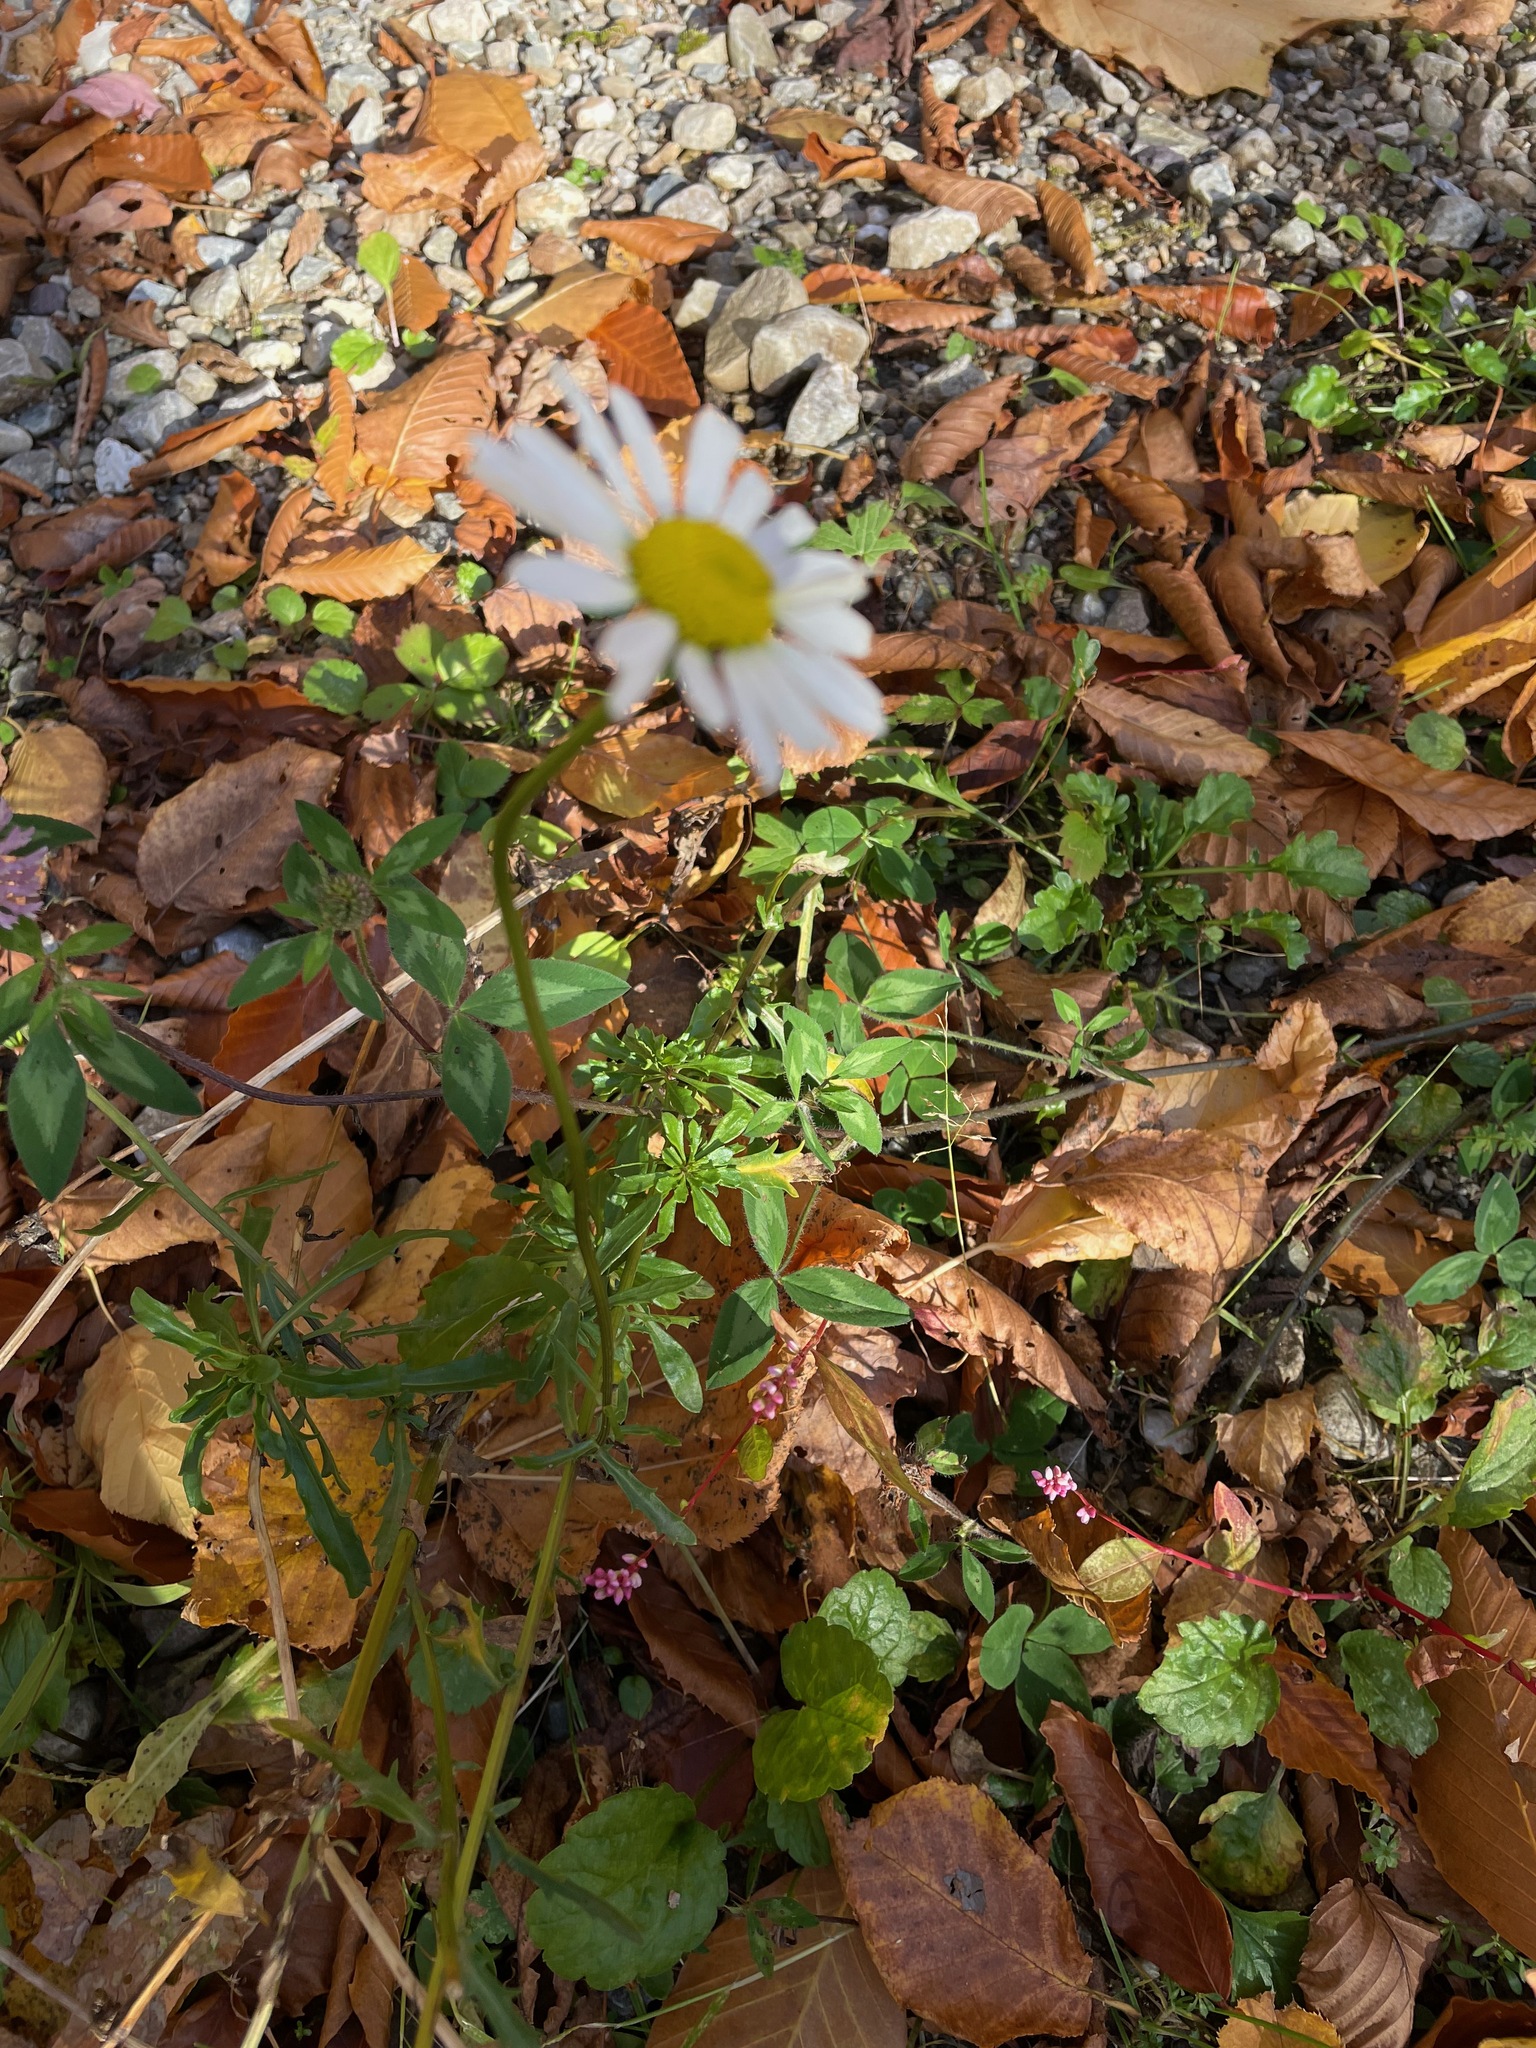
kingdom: Plantae
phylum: Tracheophyta
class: Magnoliopsida
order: Asterales
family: Asteraceae
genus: Leucanthemum
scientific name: Leucanthemum vulgare
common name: Oxeye daisy
